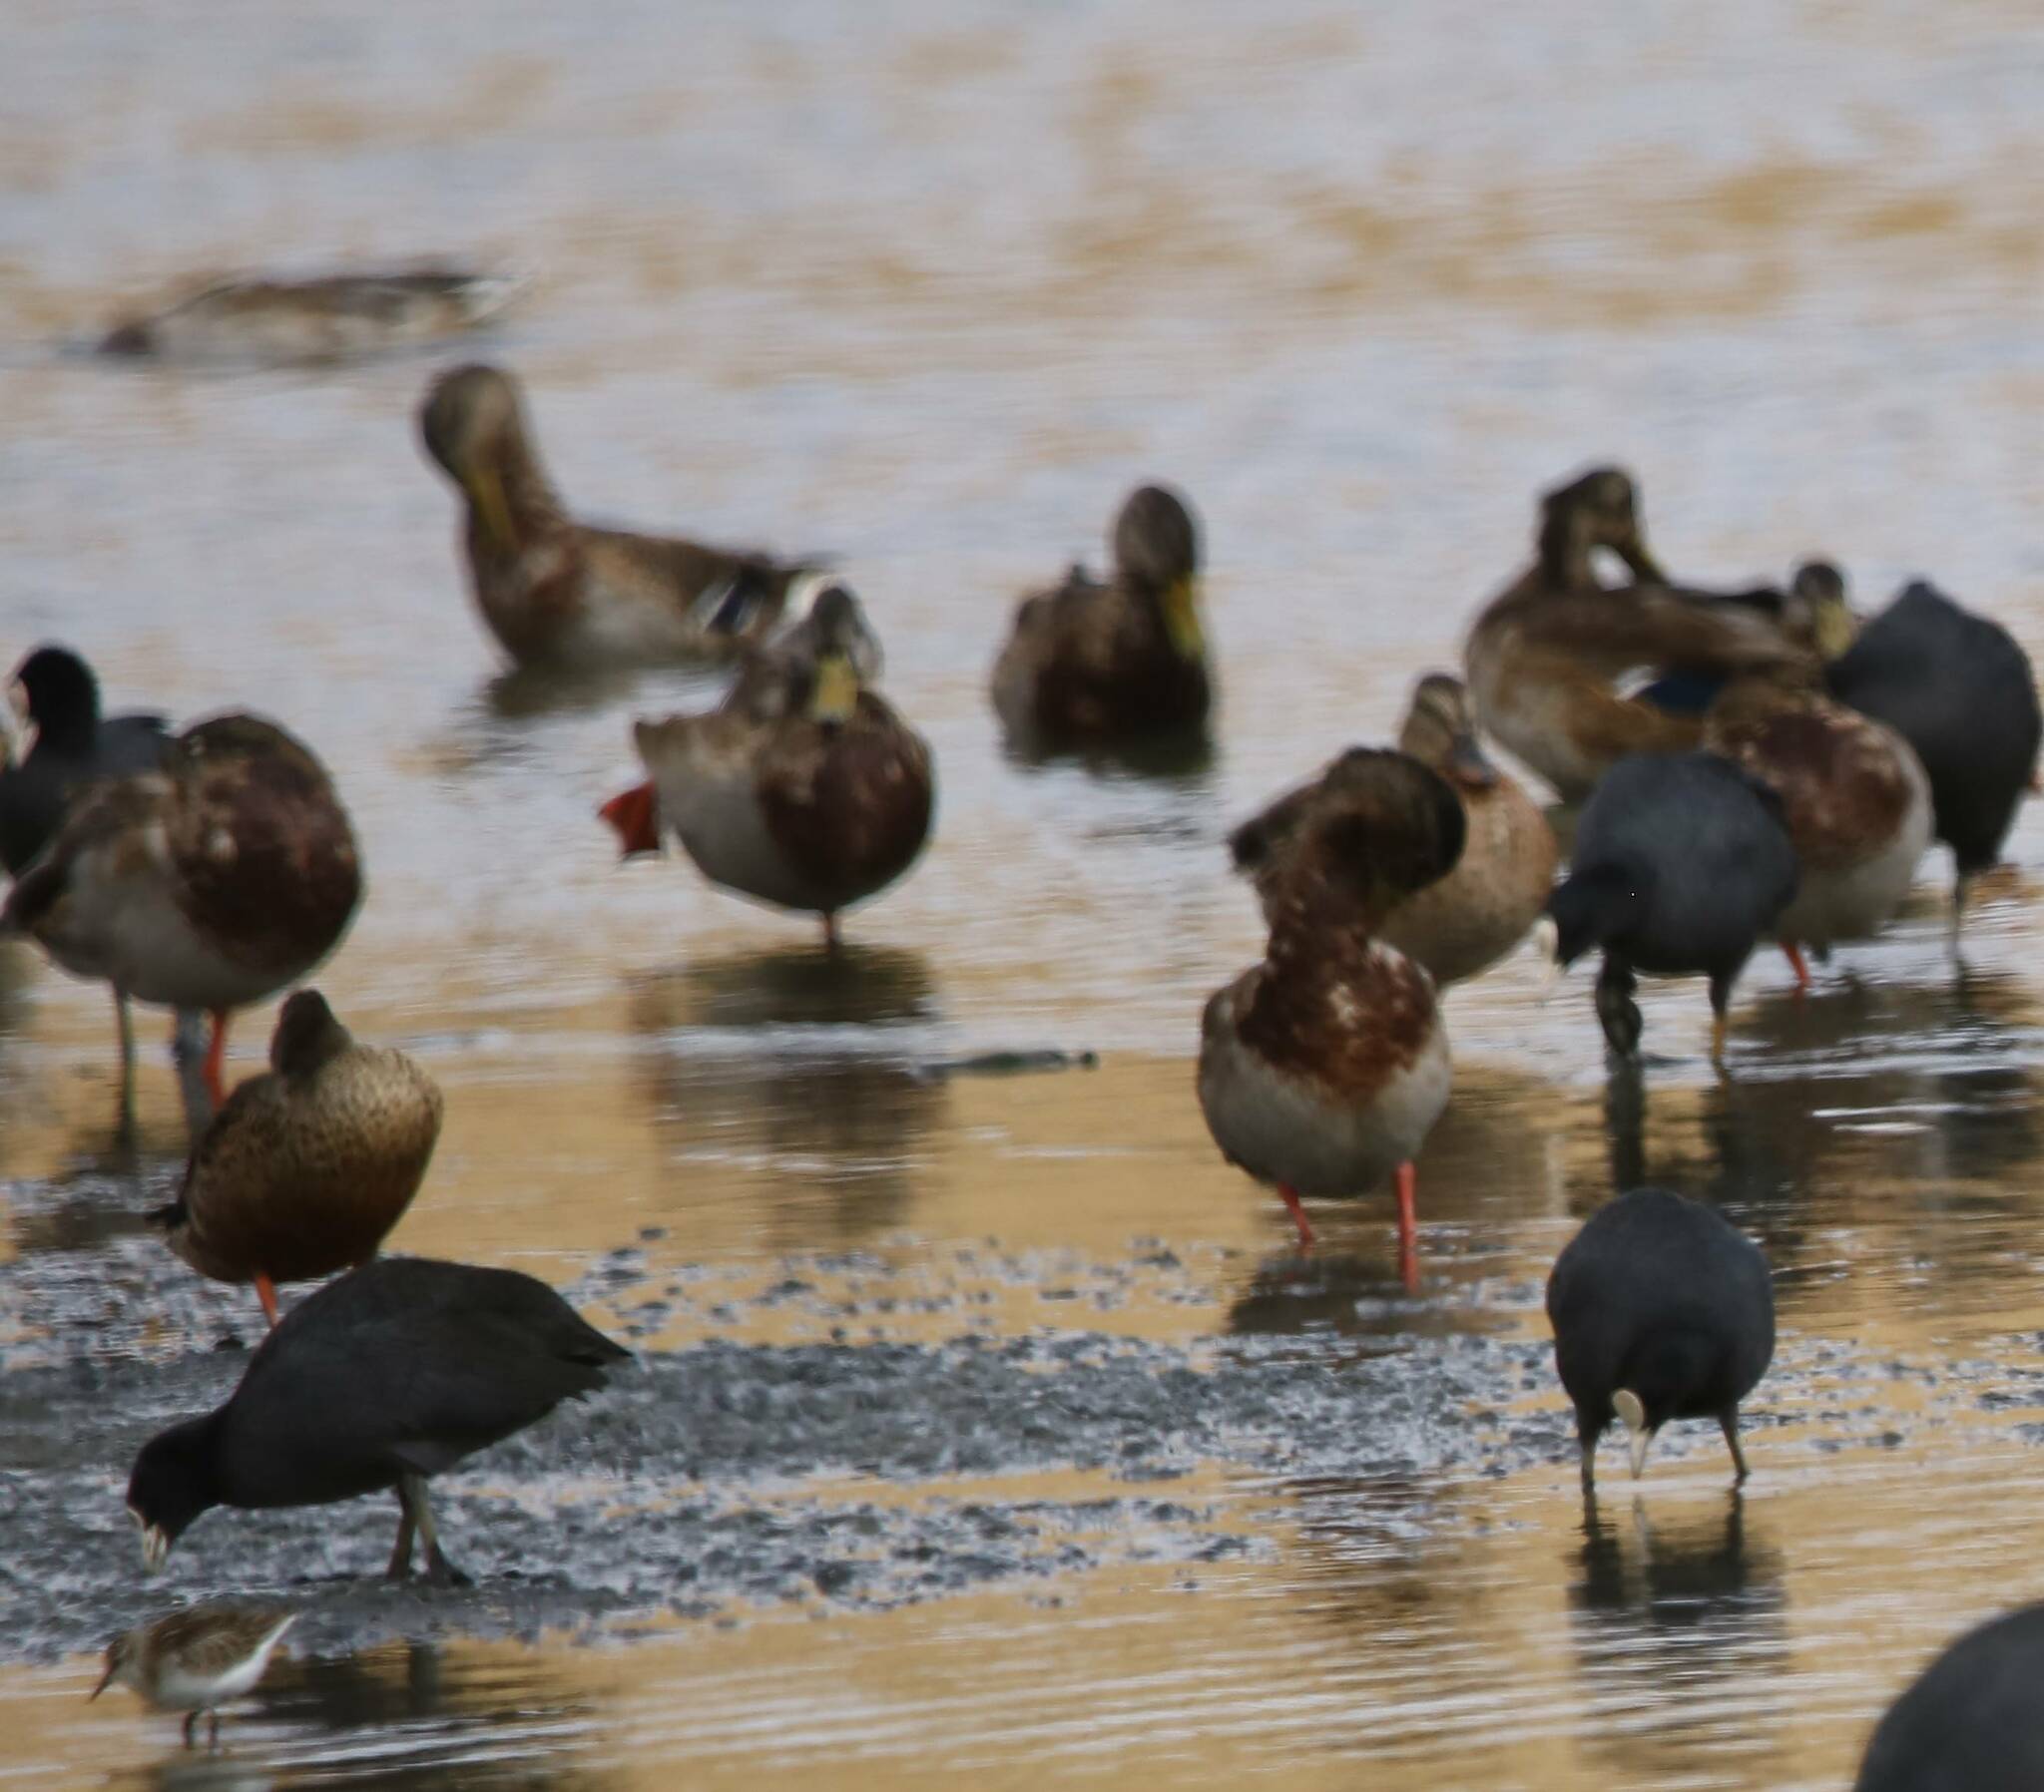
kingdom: Animalia
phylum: Chordata
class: Aves
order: Anseriformes
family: Anatidae
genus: Anas
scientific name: Anas platyrhynchos
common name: Mallard
